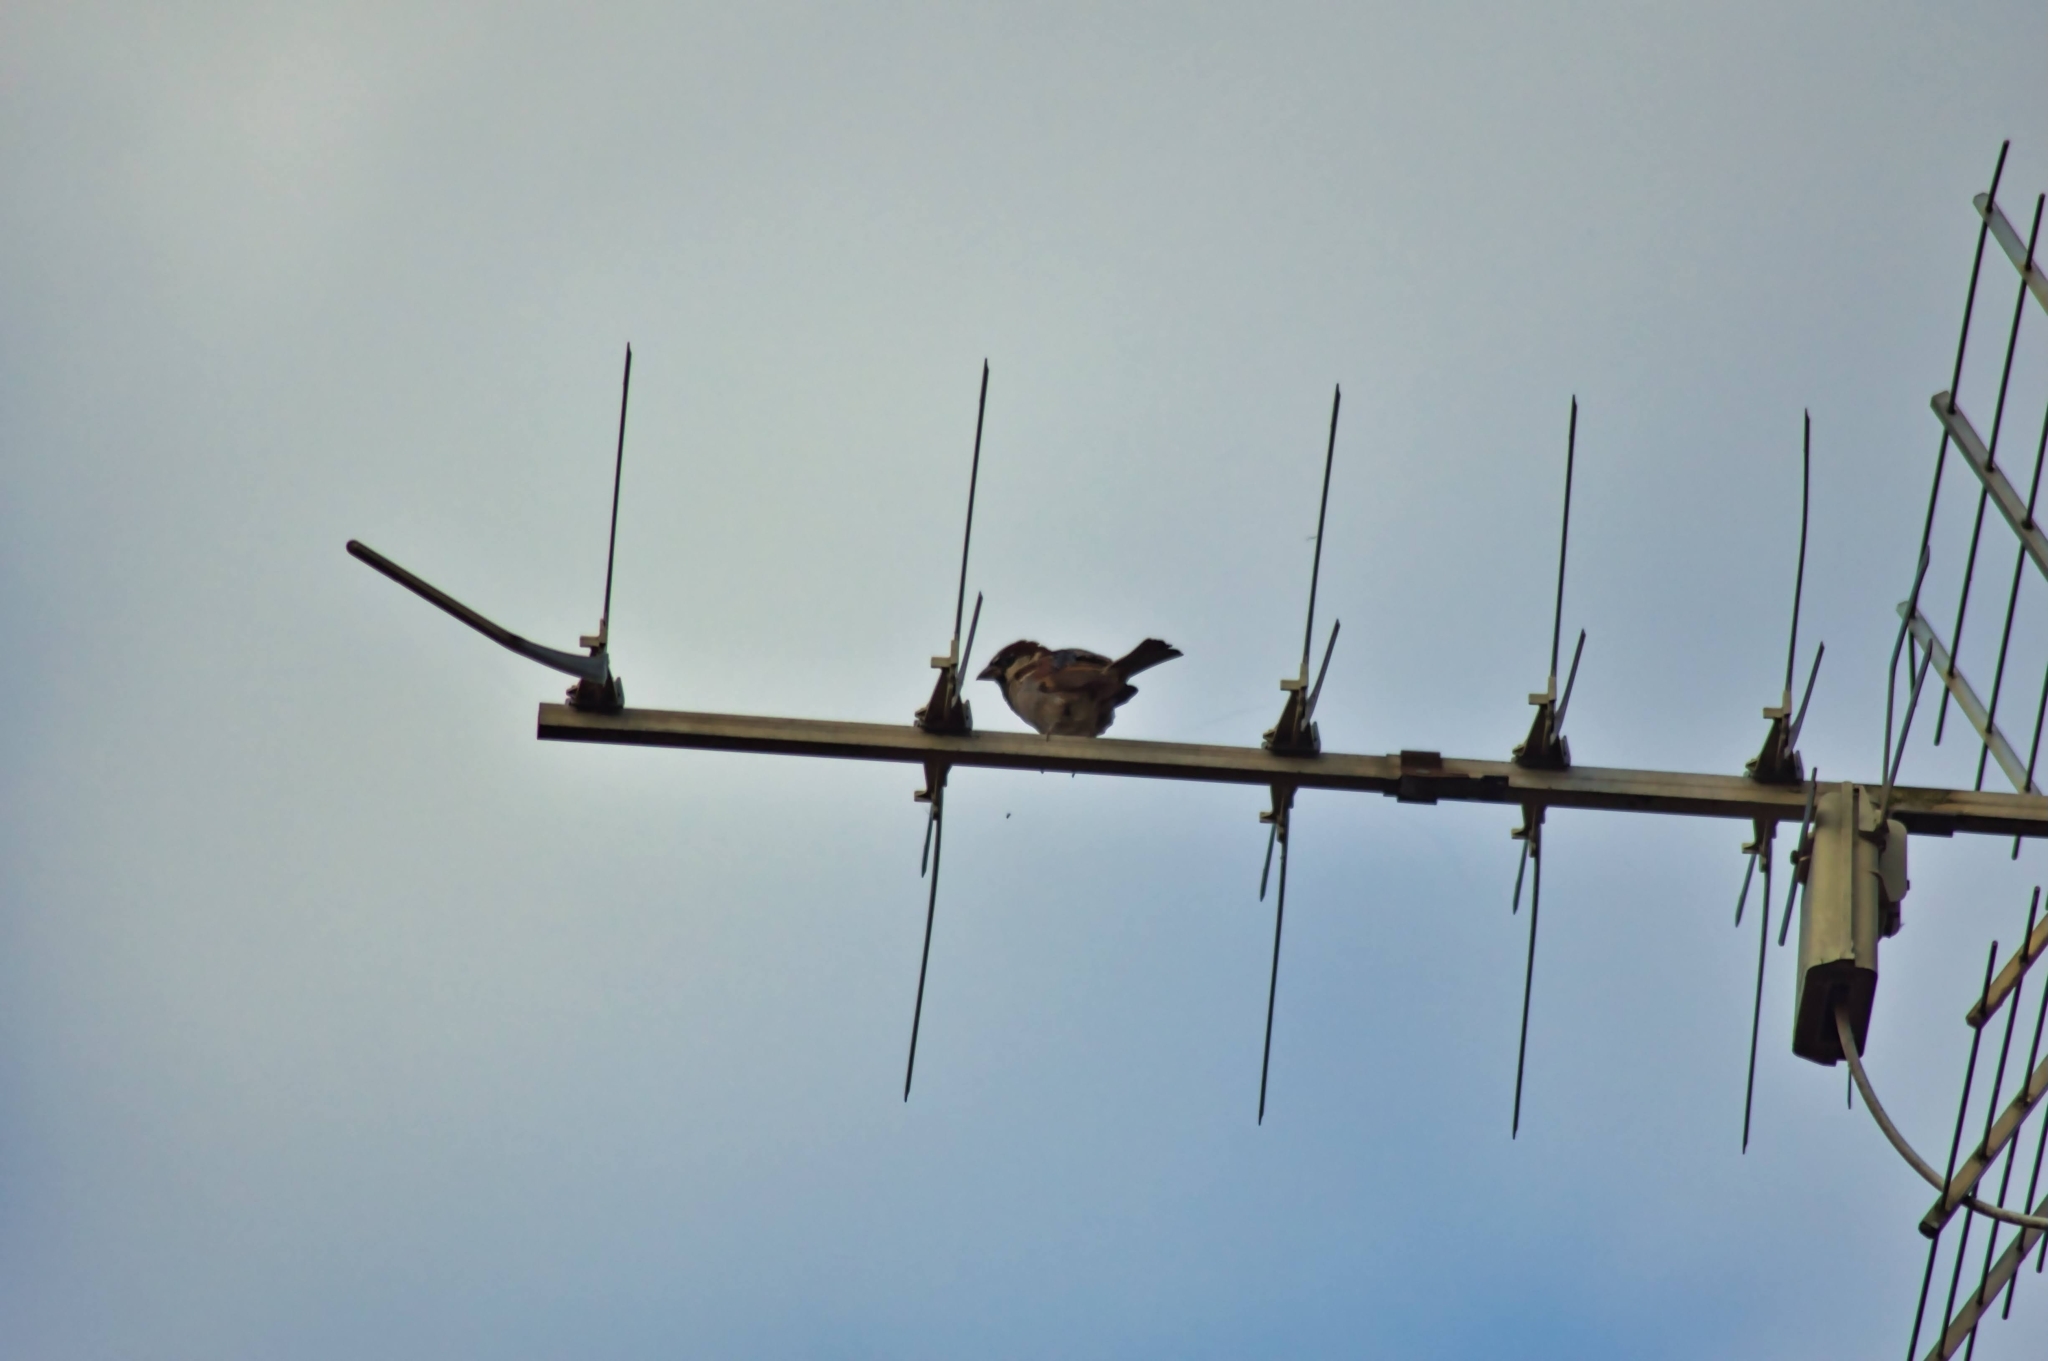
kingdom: Animalia
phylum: Chordata
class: Aves
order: Passeriformes
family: Passeridae
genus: Passer
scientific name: Passer domesticus
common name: House sparrow
